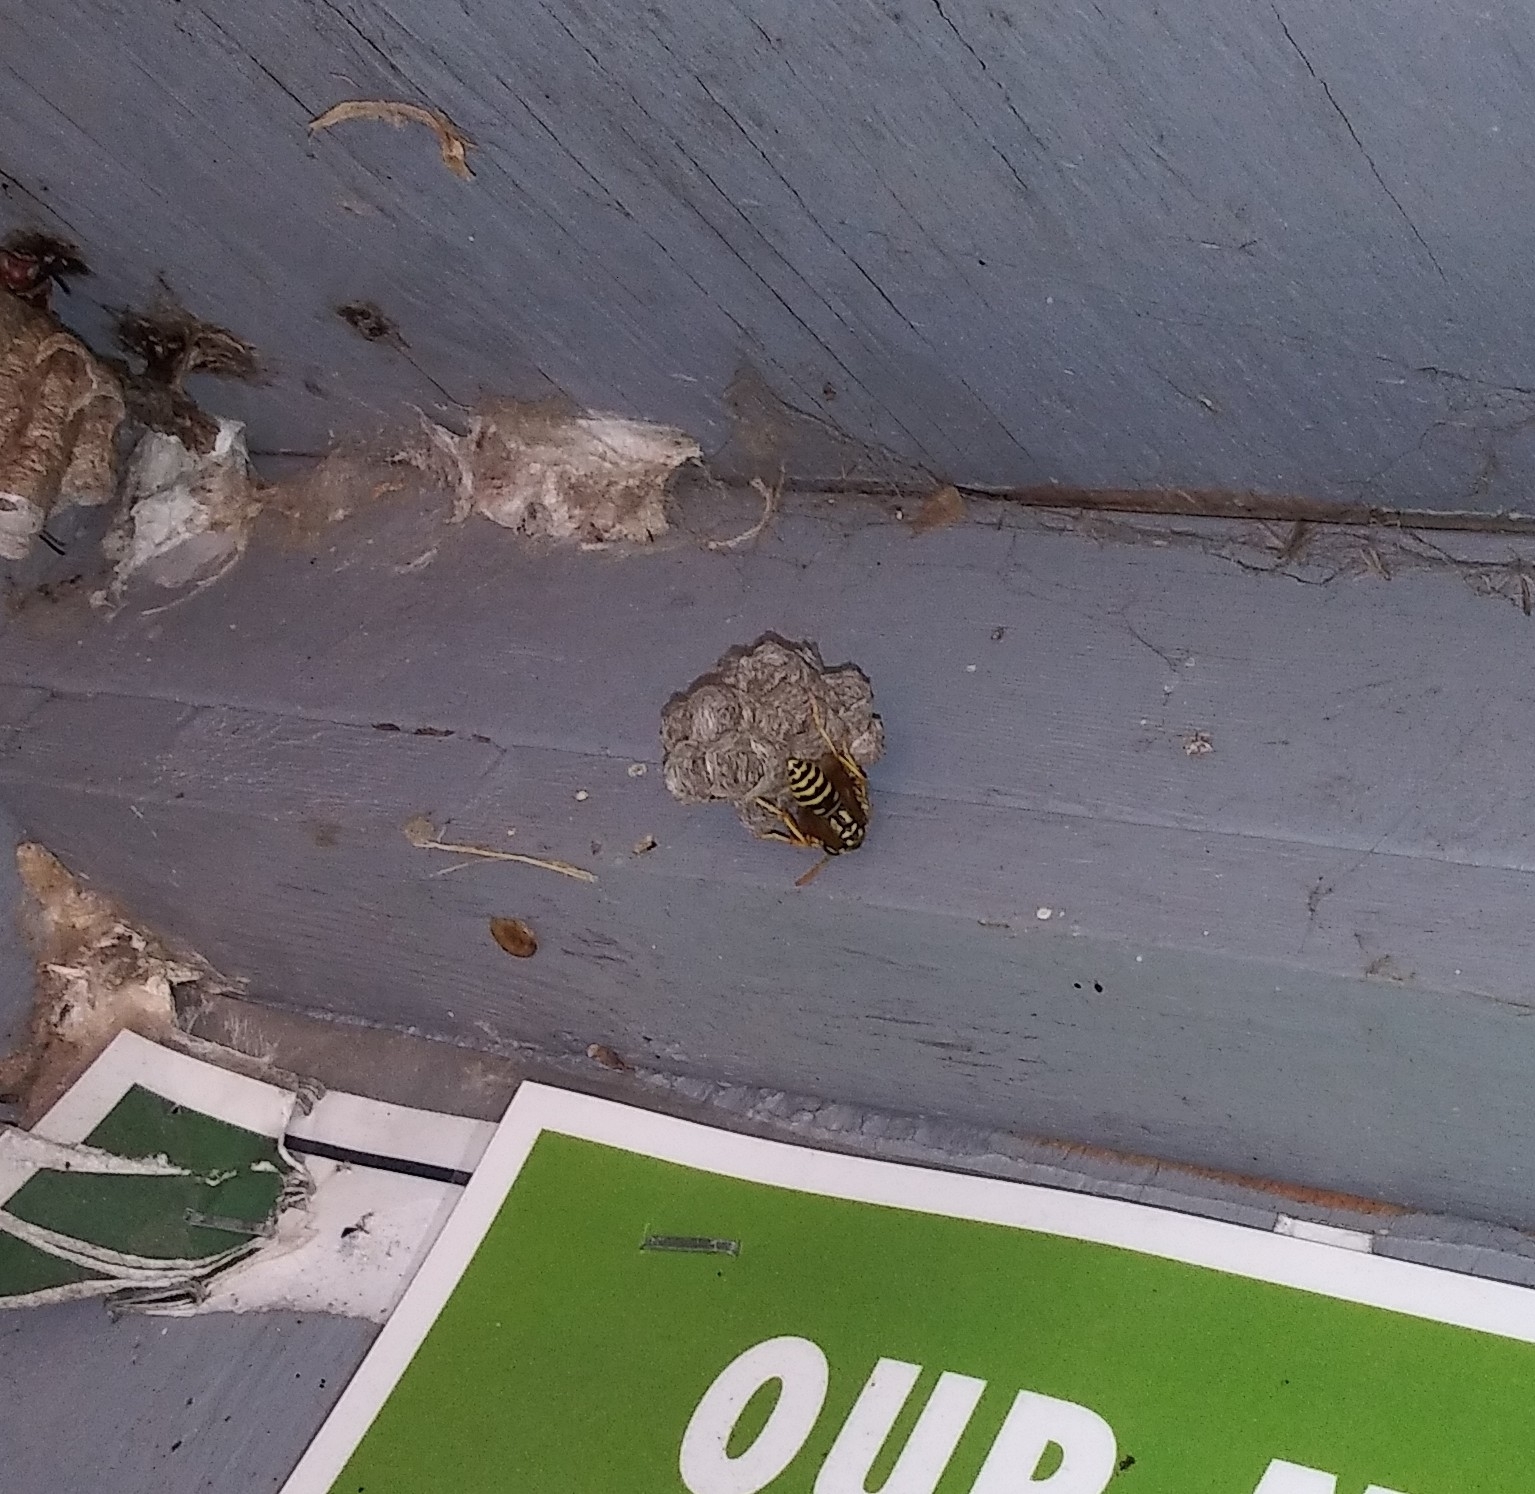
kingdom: Animalia
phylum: Arthropoda
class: Insecta
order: Hymenoptera
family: Eumenidae
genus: Polistes
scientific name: Polistes dominula
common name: Paper wasp
